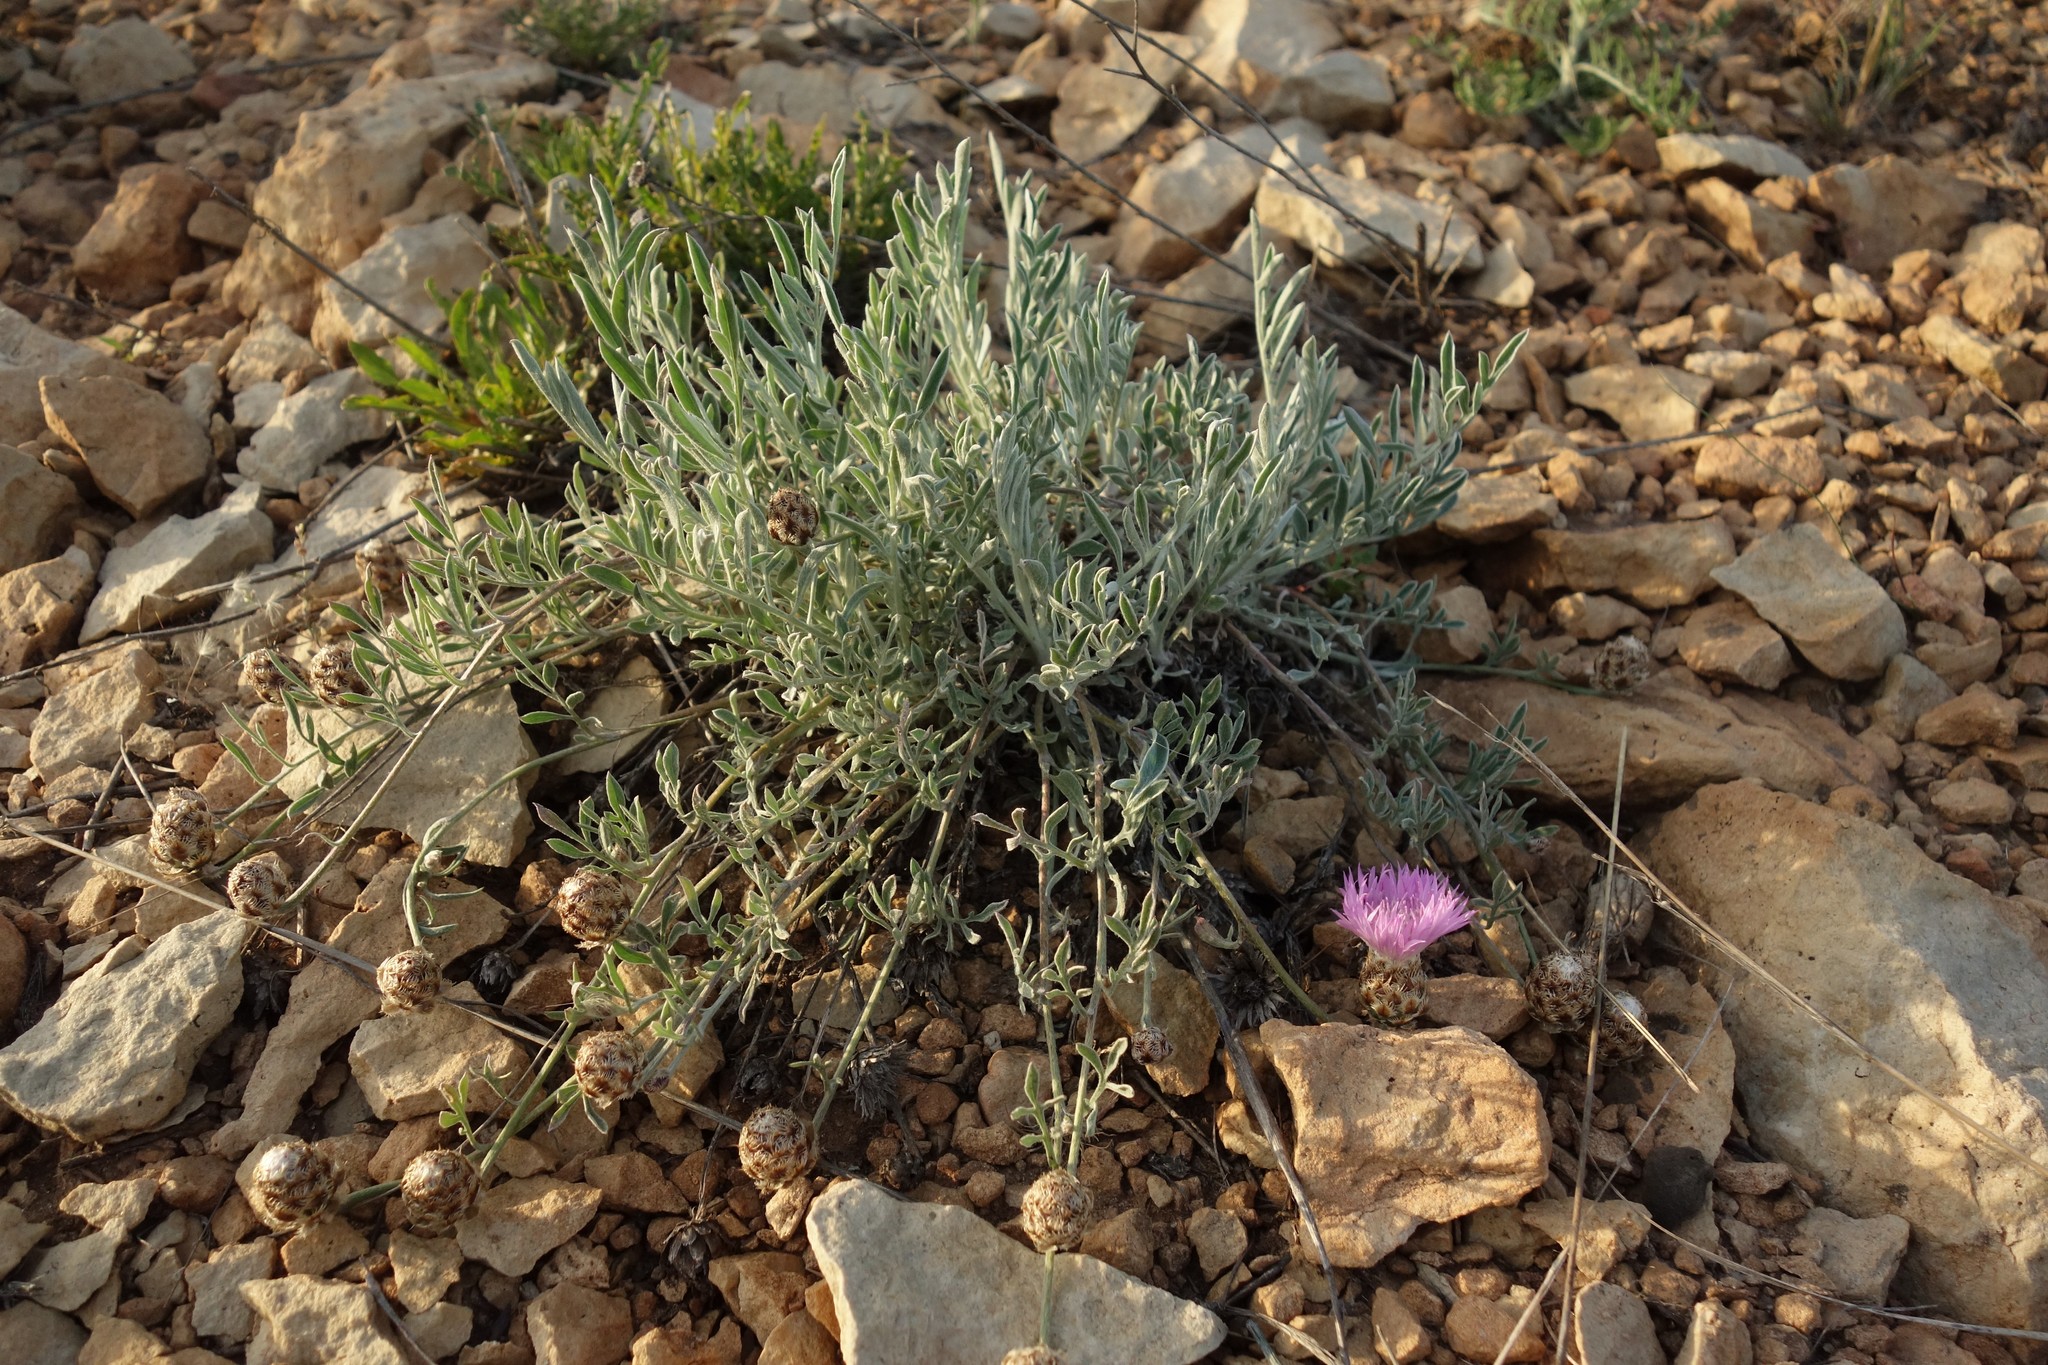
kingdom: Plantae
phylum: Tracheophyta
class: Magnoliopsida
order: Asterales
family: Asteraceae
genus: Psephellus
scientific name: Psephellus marschallianus
